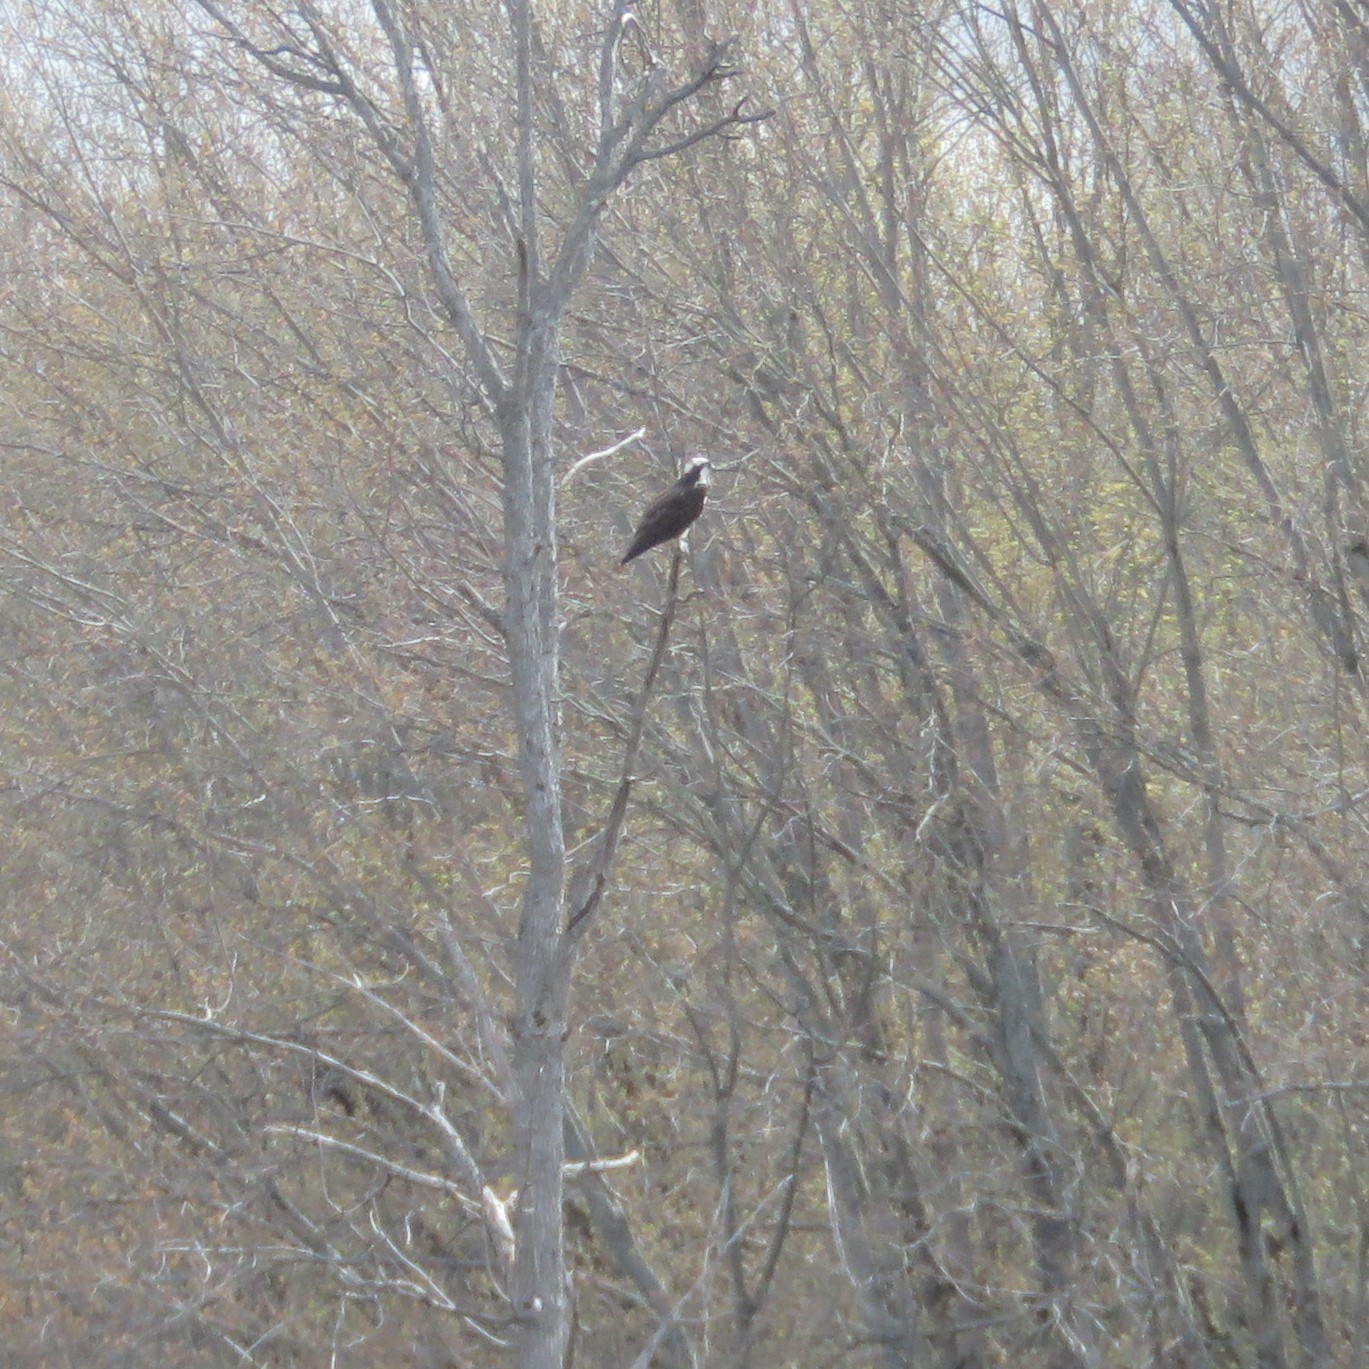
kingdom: Animalia
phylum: Chordata
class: Aves
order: Accipitriformes
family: Pandionidae
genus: Pandion
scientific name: Pandion haliaetus
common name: Osprey
